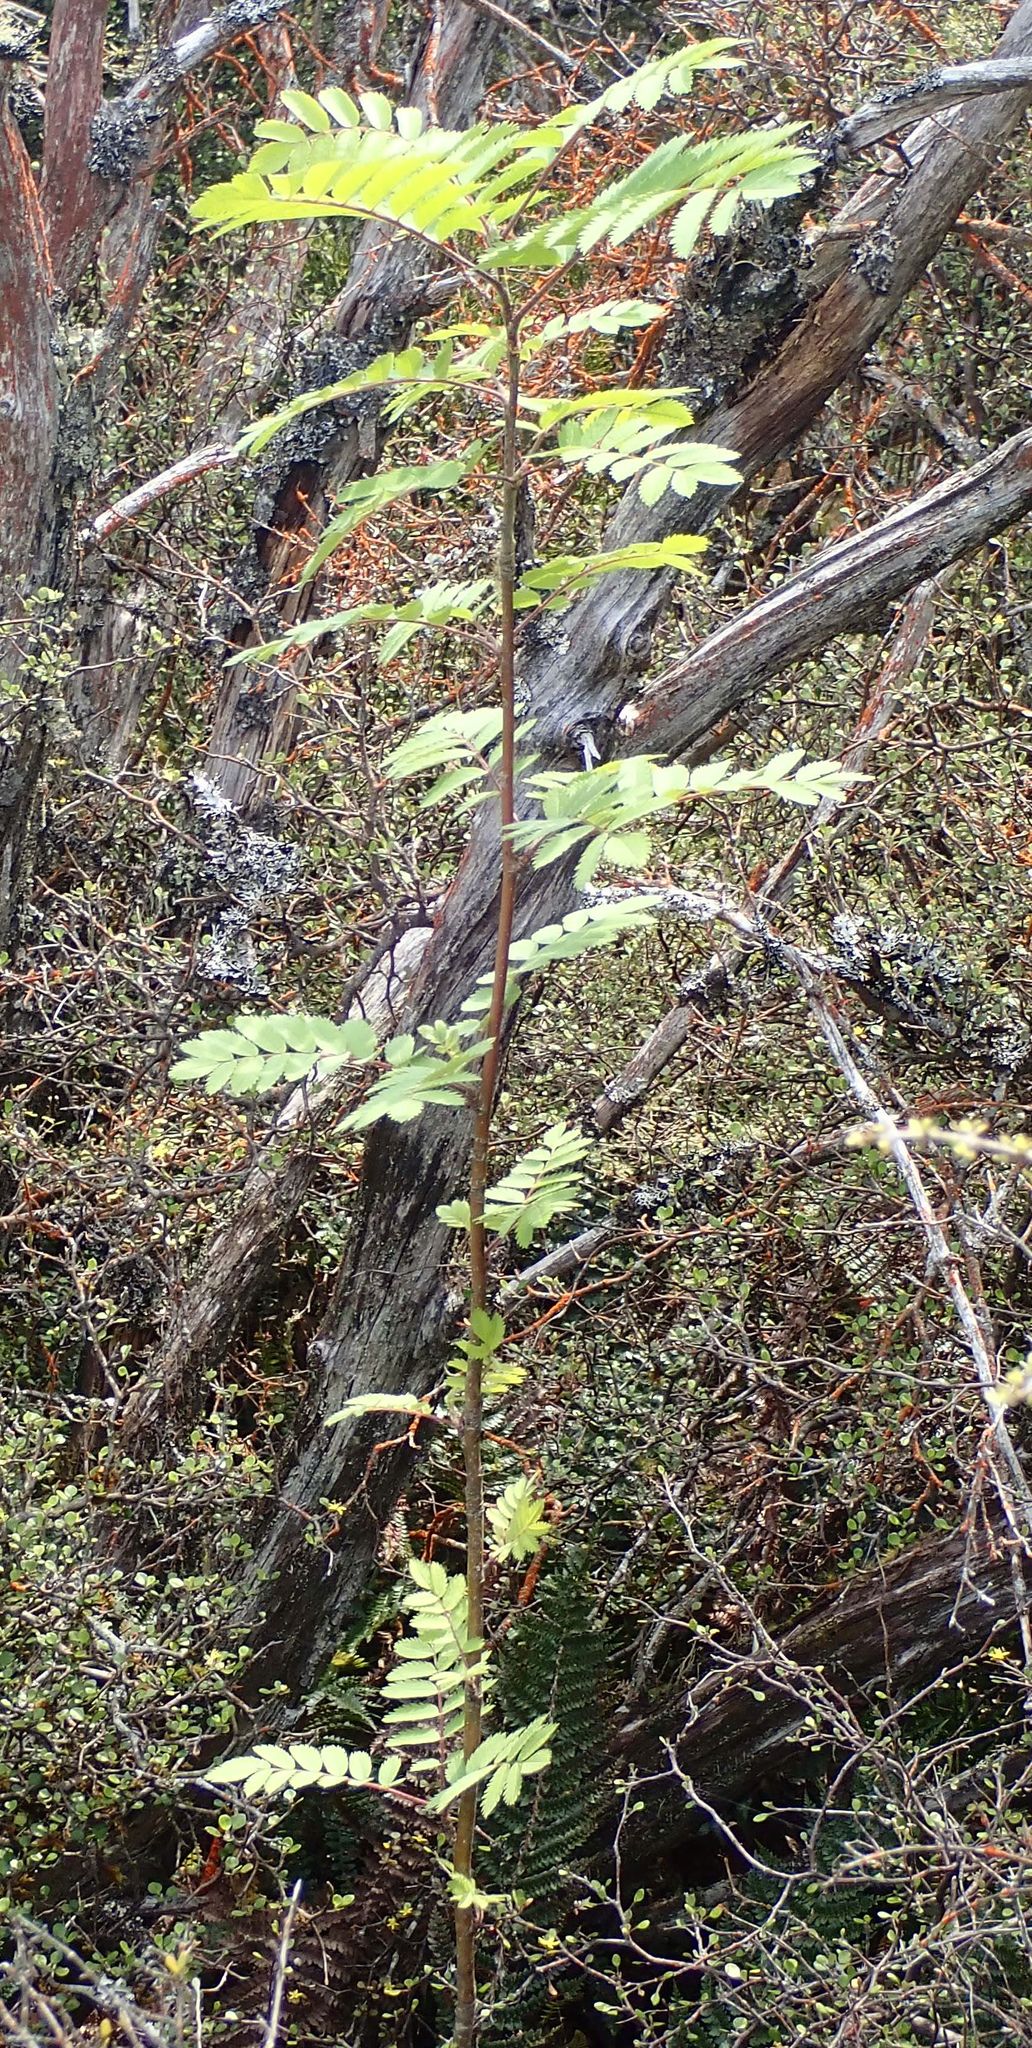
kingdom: Plantae
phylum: Tracheophyta
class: Magnoliopsida
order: Rosales
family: Rosaceae
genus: Sorbus
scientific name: Sorbus aucuparia
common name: Rowan
